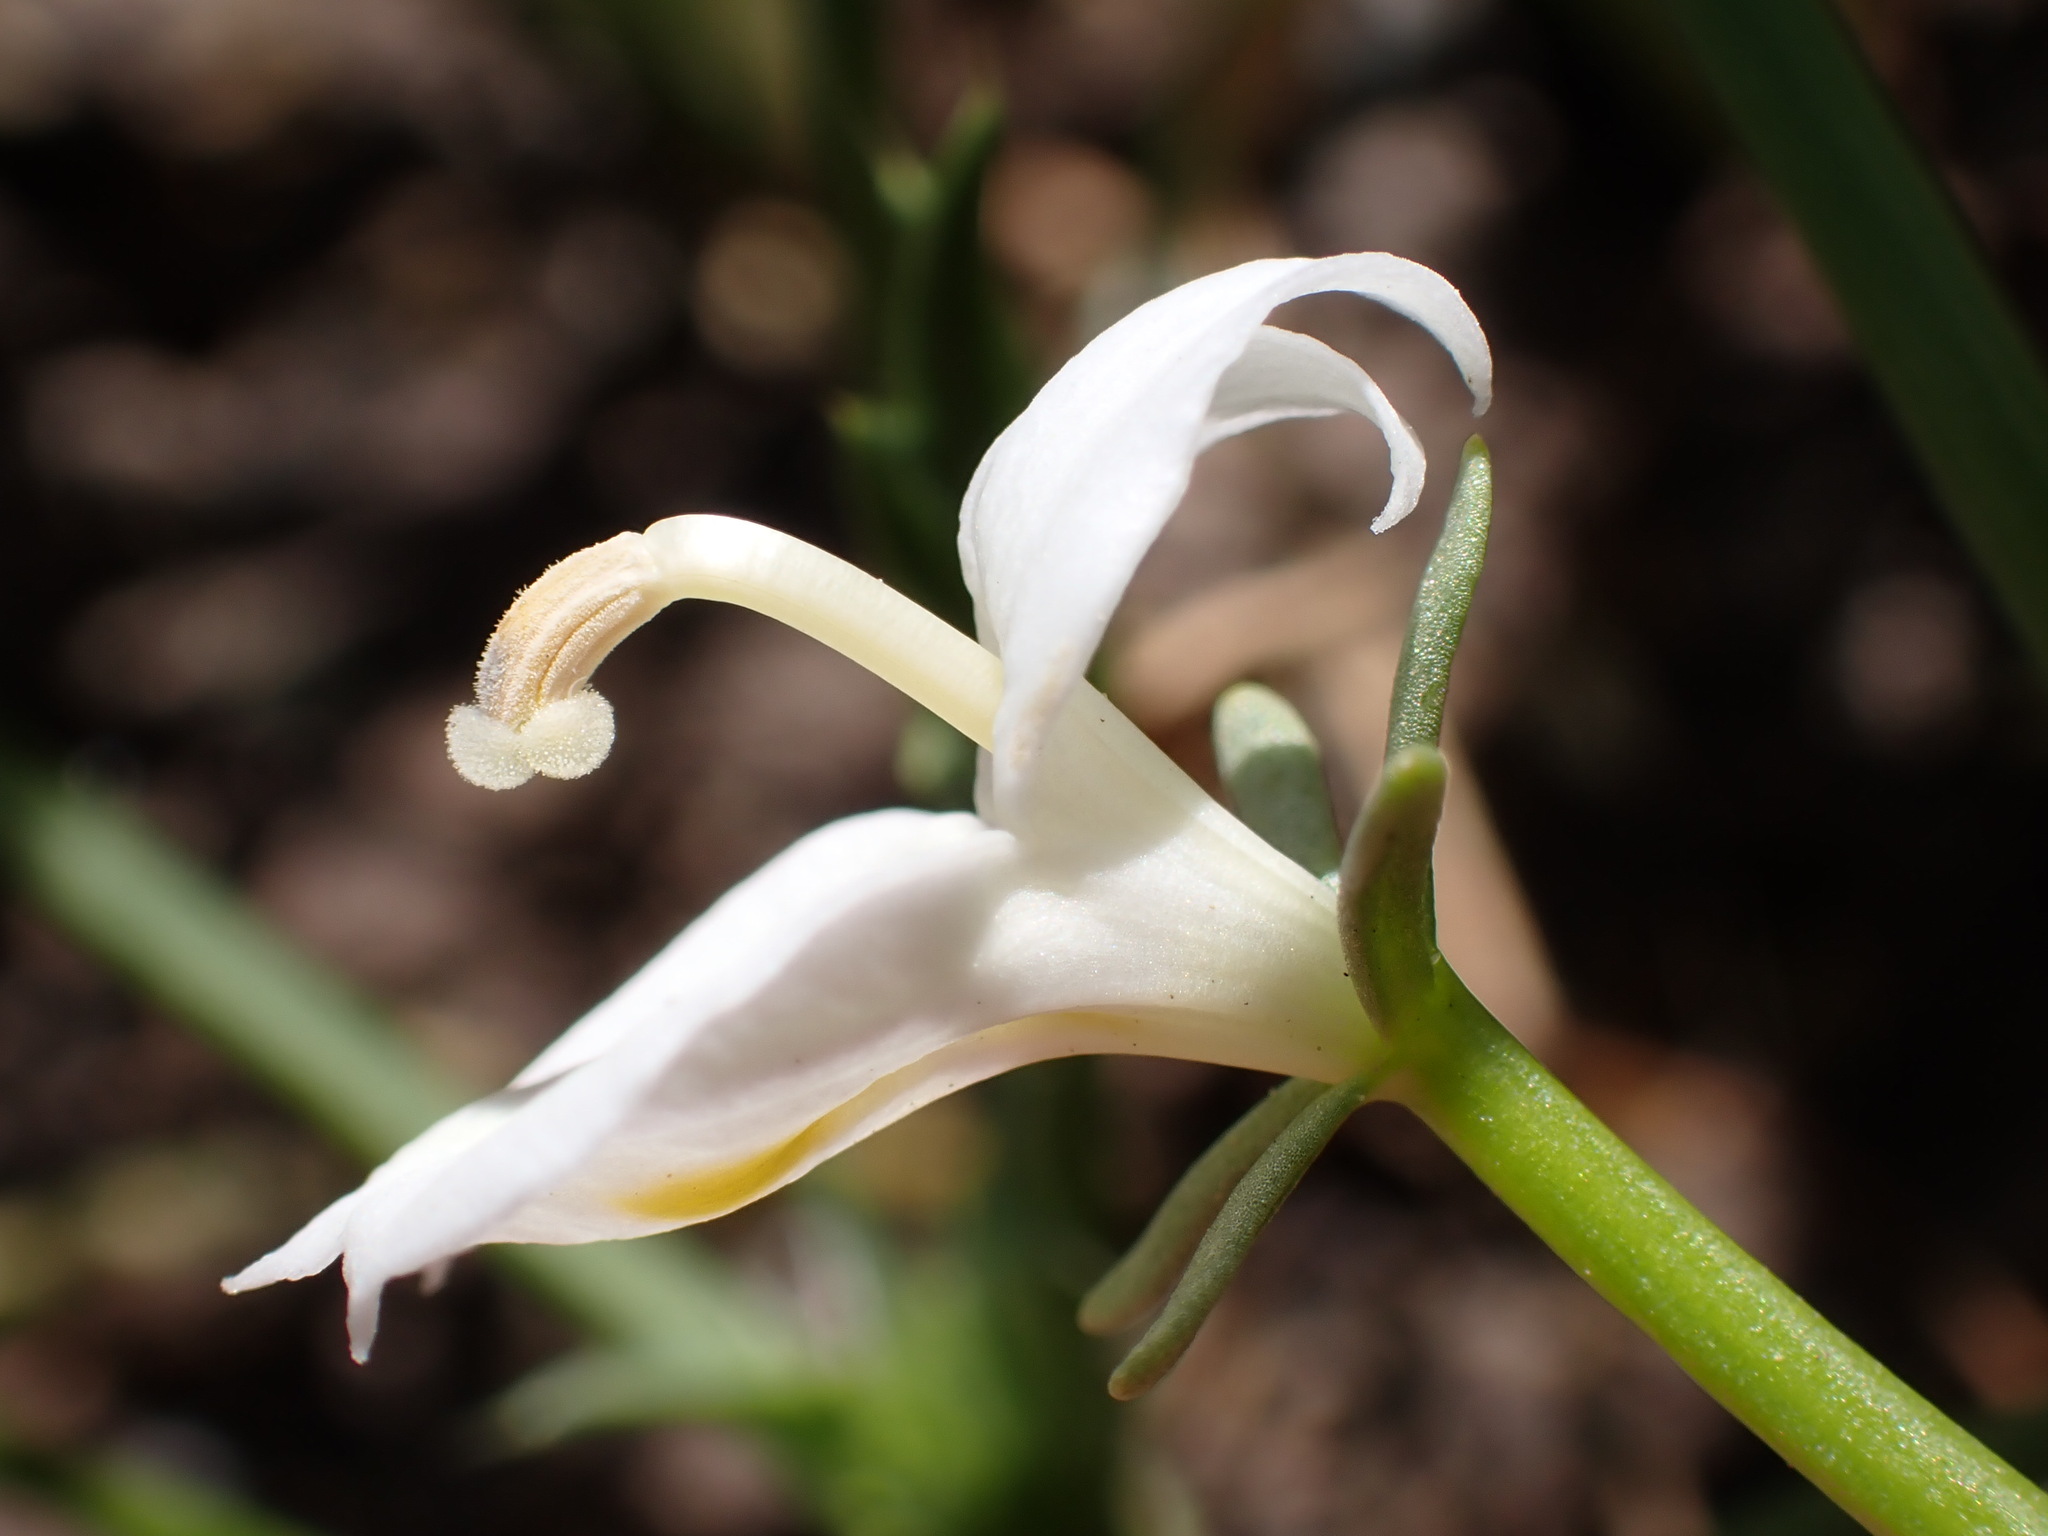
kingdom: Plantae
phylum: Tracheophyta
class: Magnoliopsida
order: Asterales
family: Campanulaceae
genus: Downingia
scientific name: Downingia insignis
